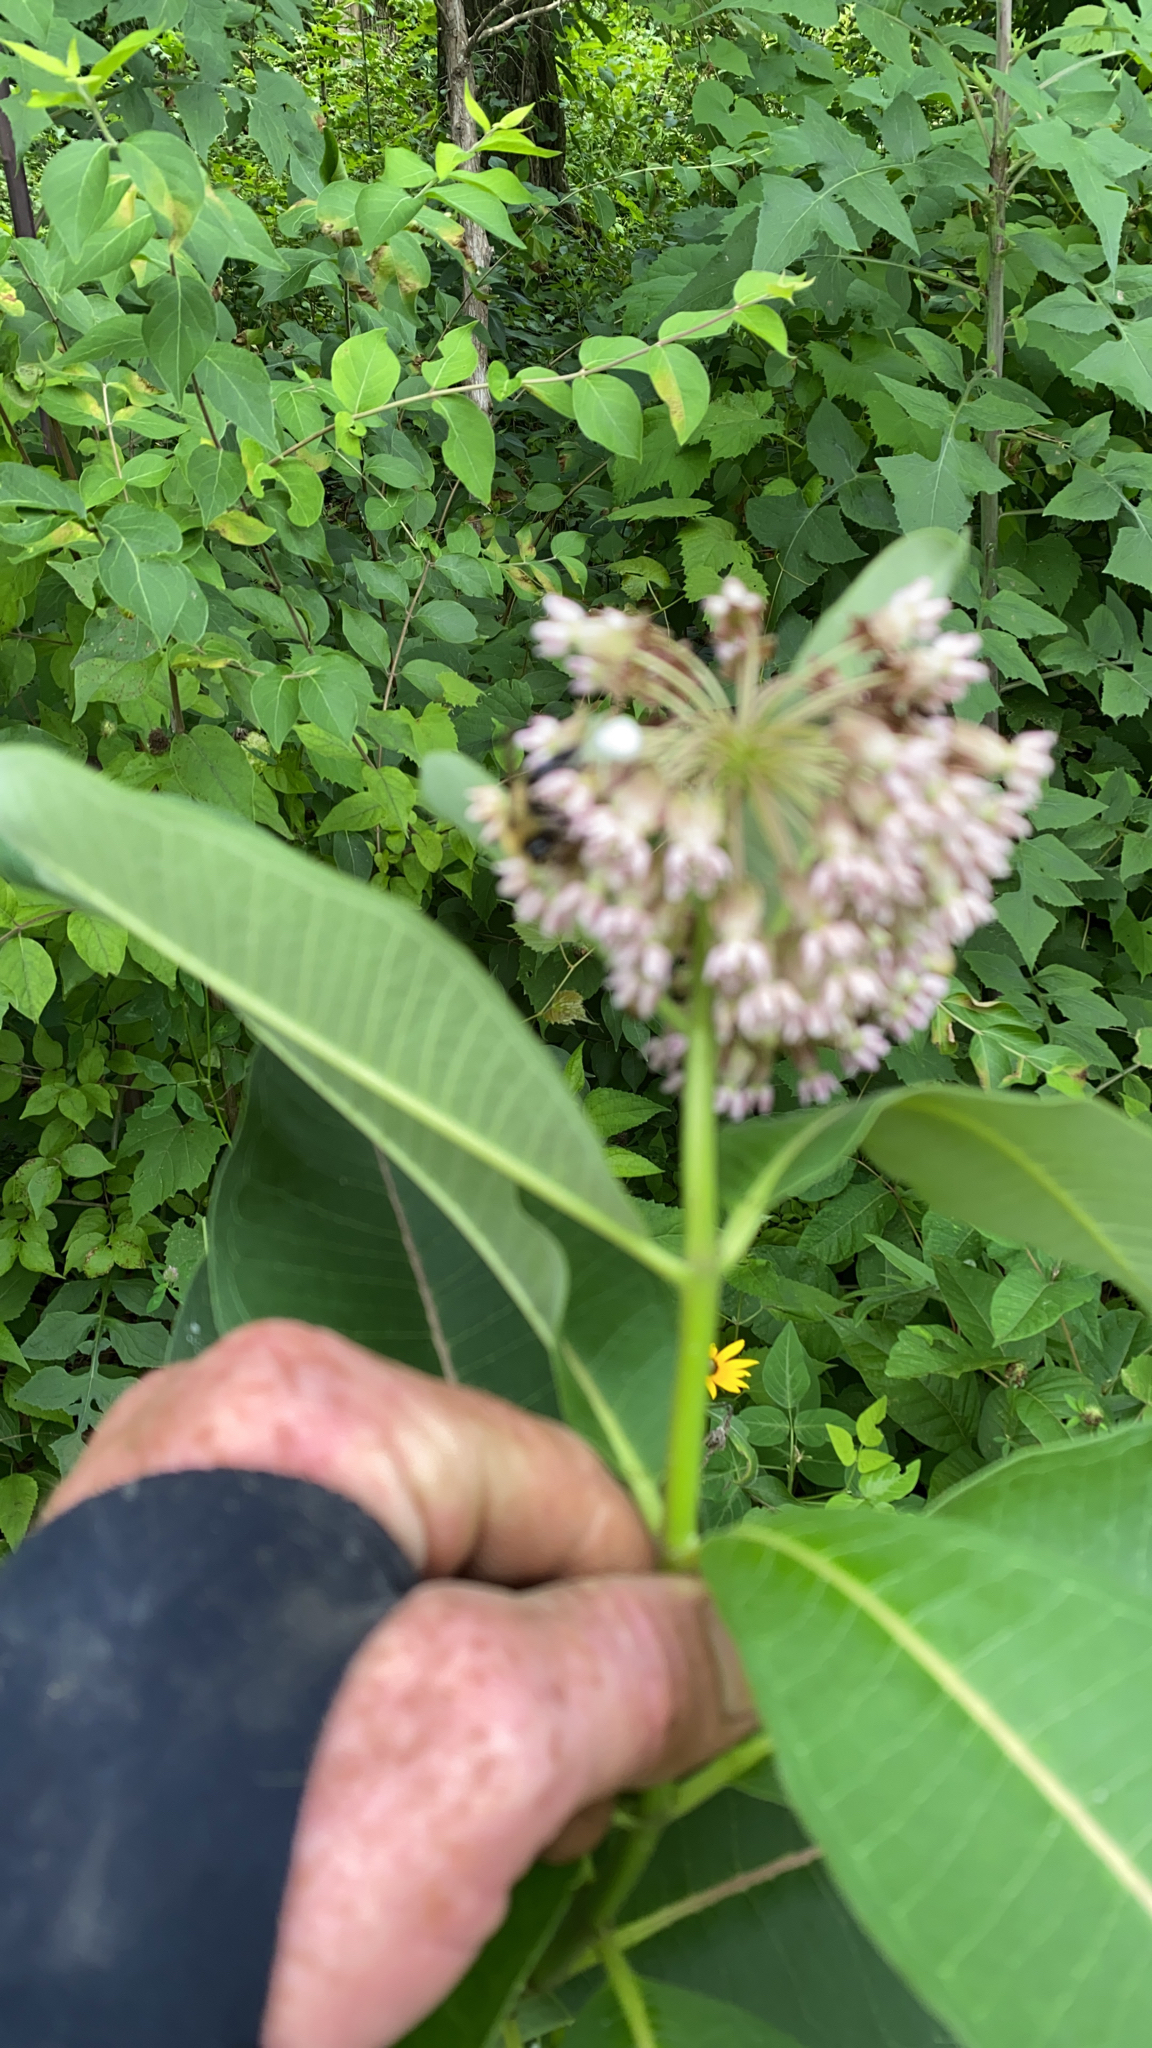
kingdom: Plantae
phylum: Tracheophyta
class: Magnoliopsida
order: Gentianales
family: Apocynaceae
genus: Asclepias
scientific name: Asclepias syriaca
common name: Common milkweed
